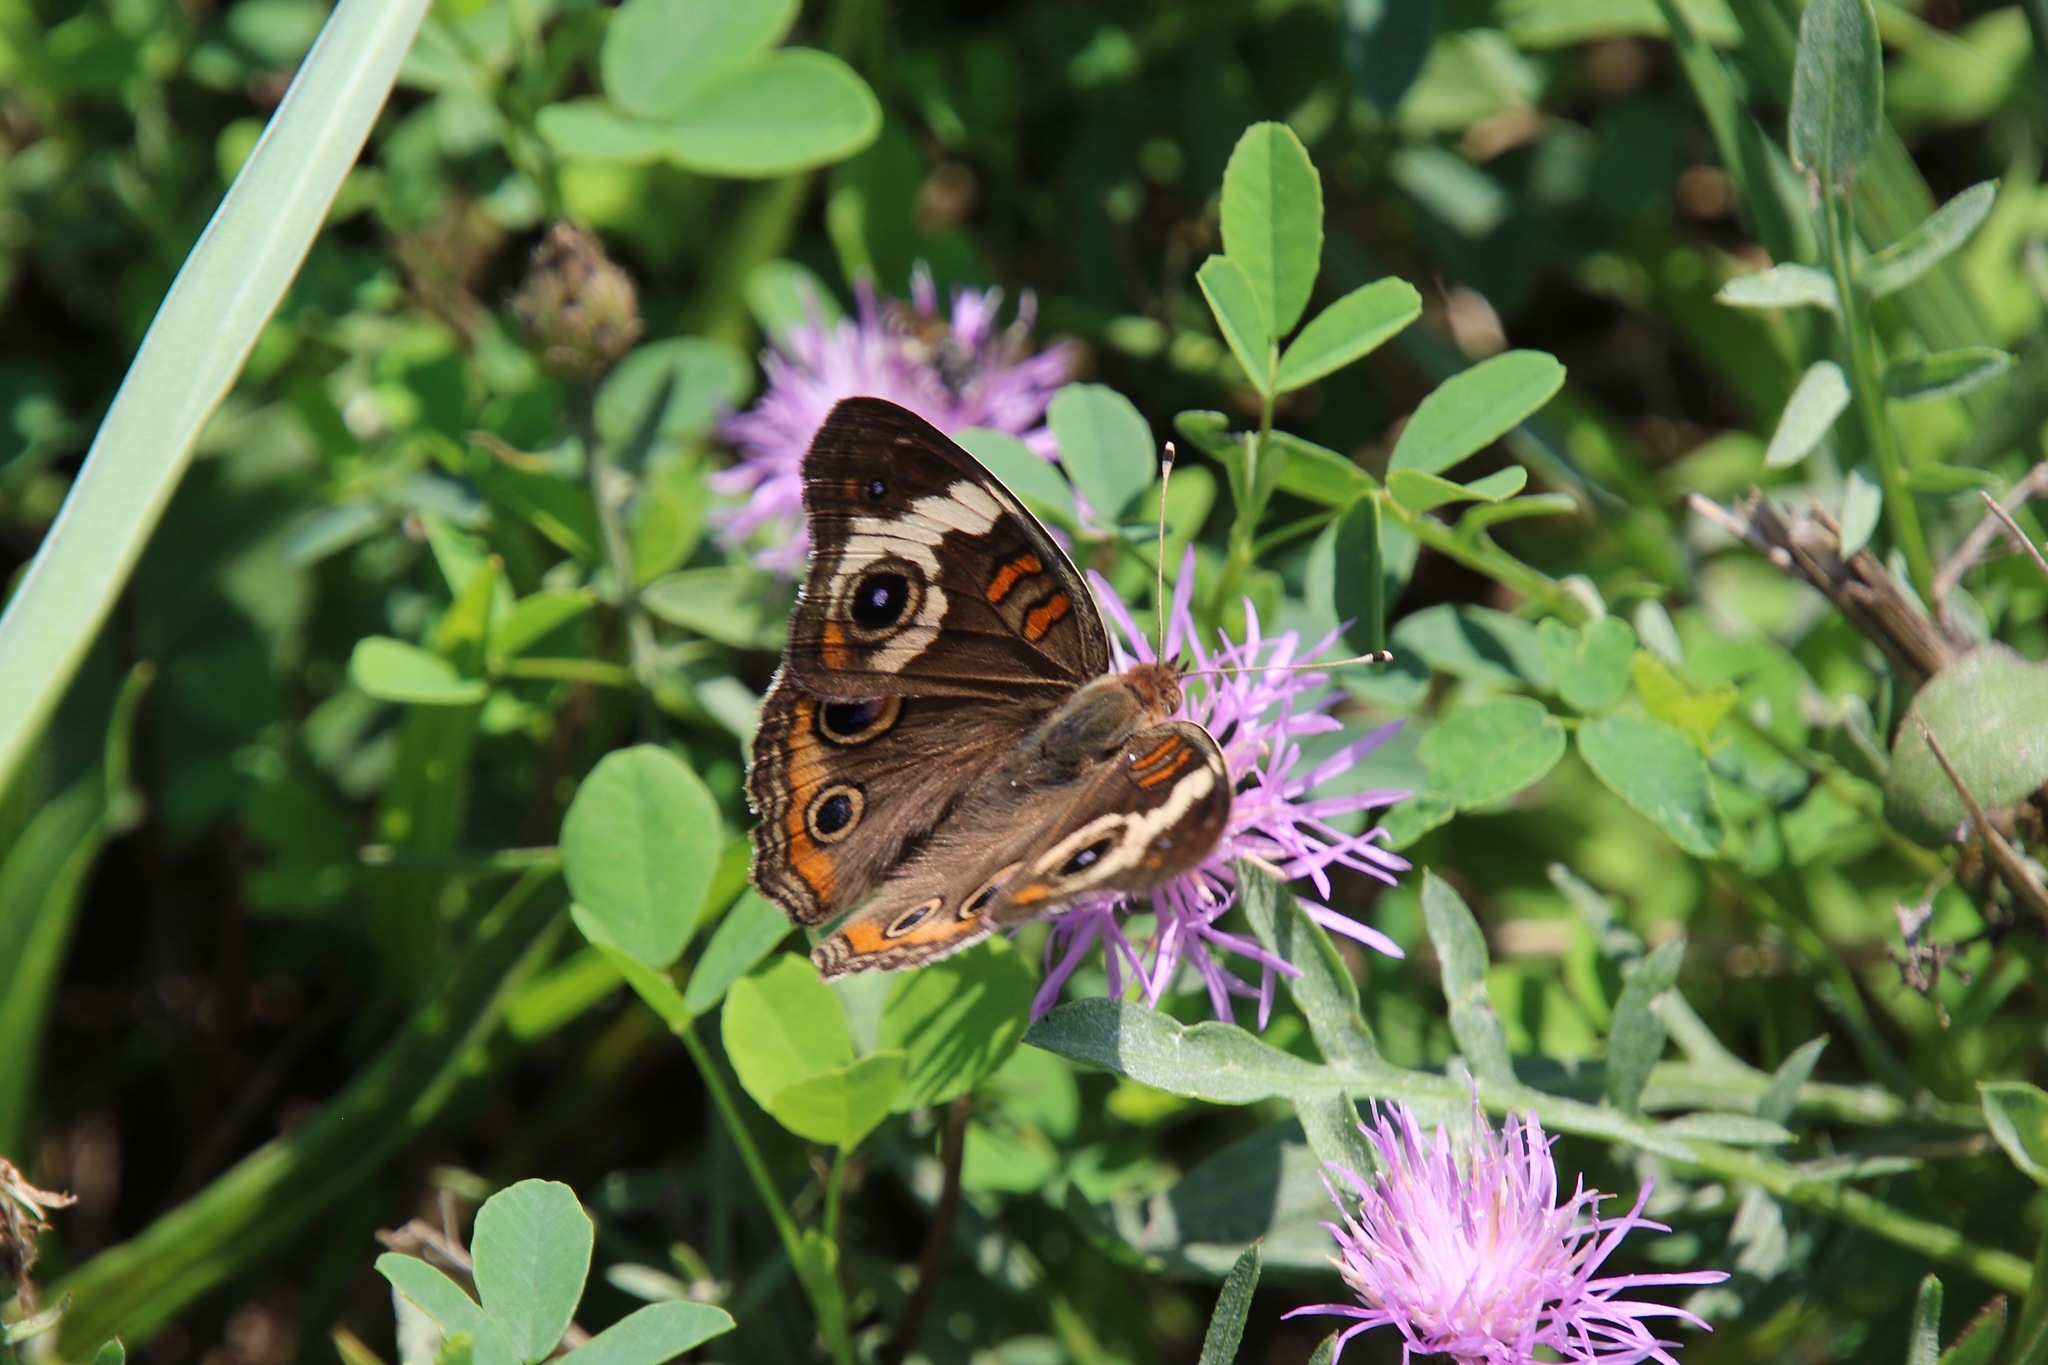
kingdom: Animalia
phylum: Arthropoda
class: Insecta
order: Lepidoptera
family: Nymphalidae
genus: Junonia
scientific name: Junonia coenia
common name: Common buckeye
